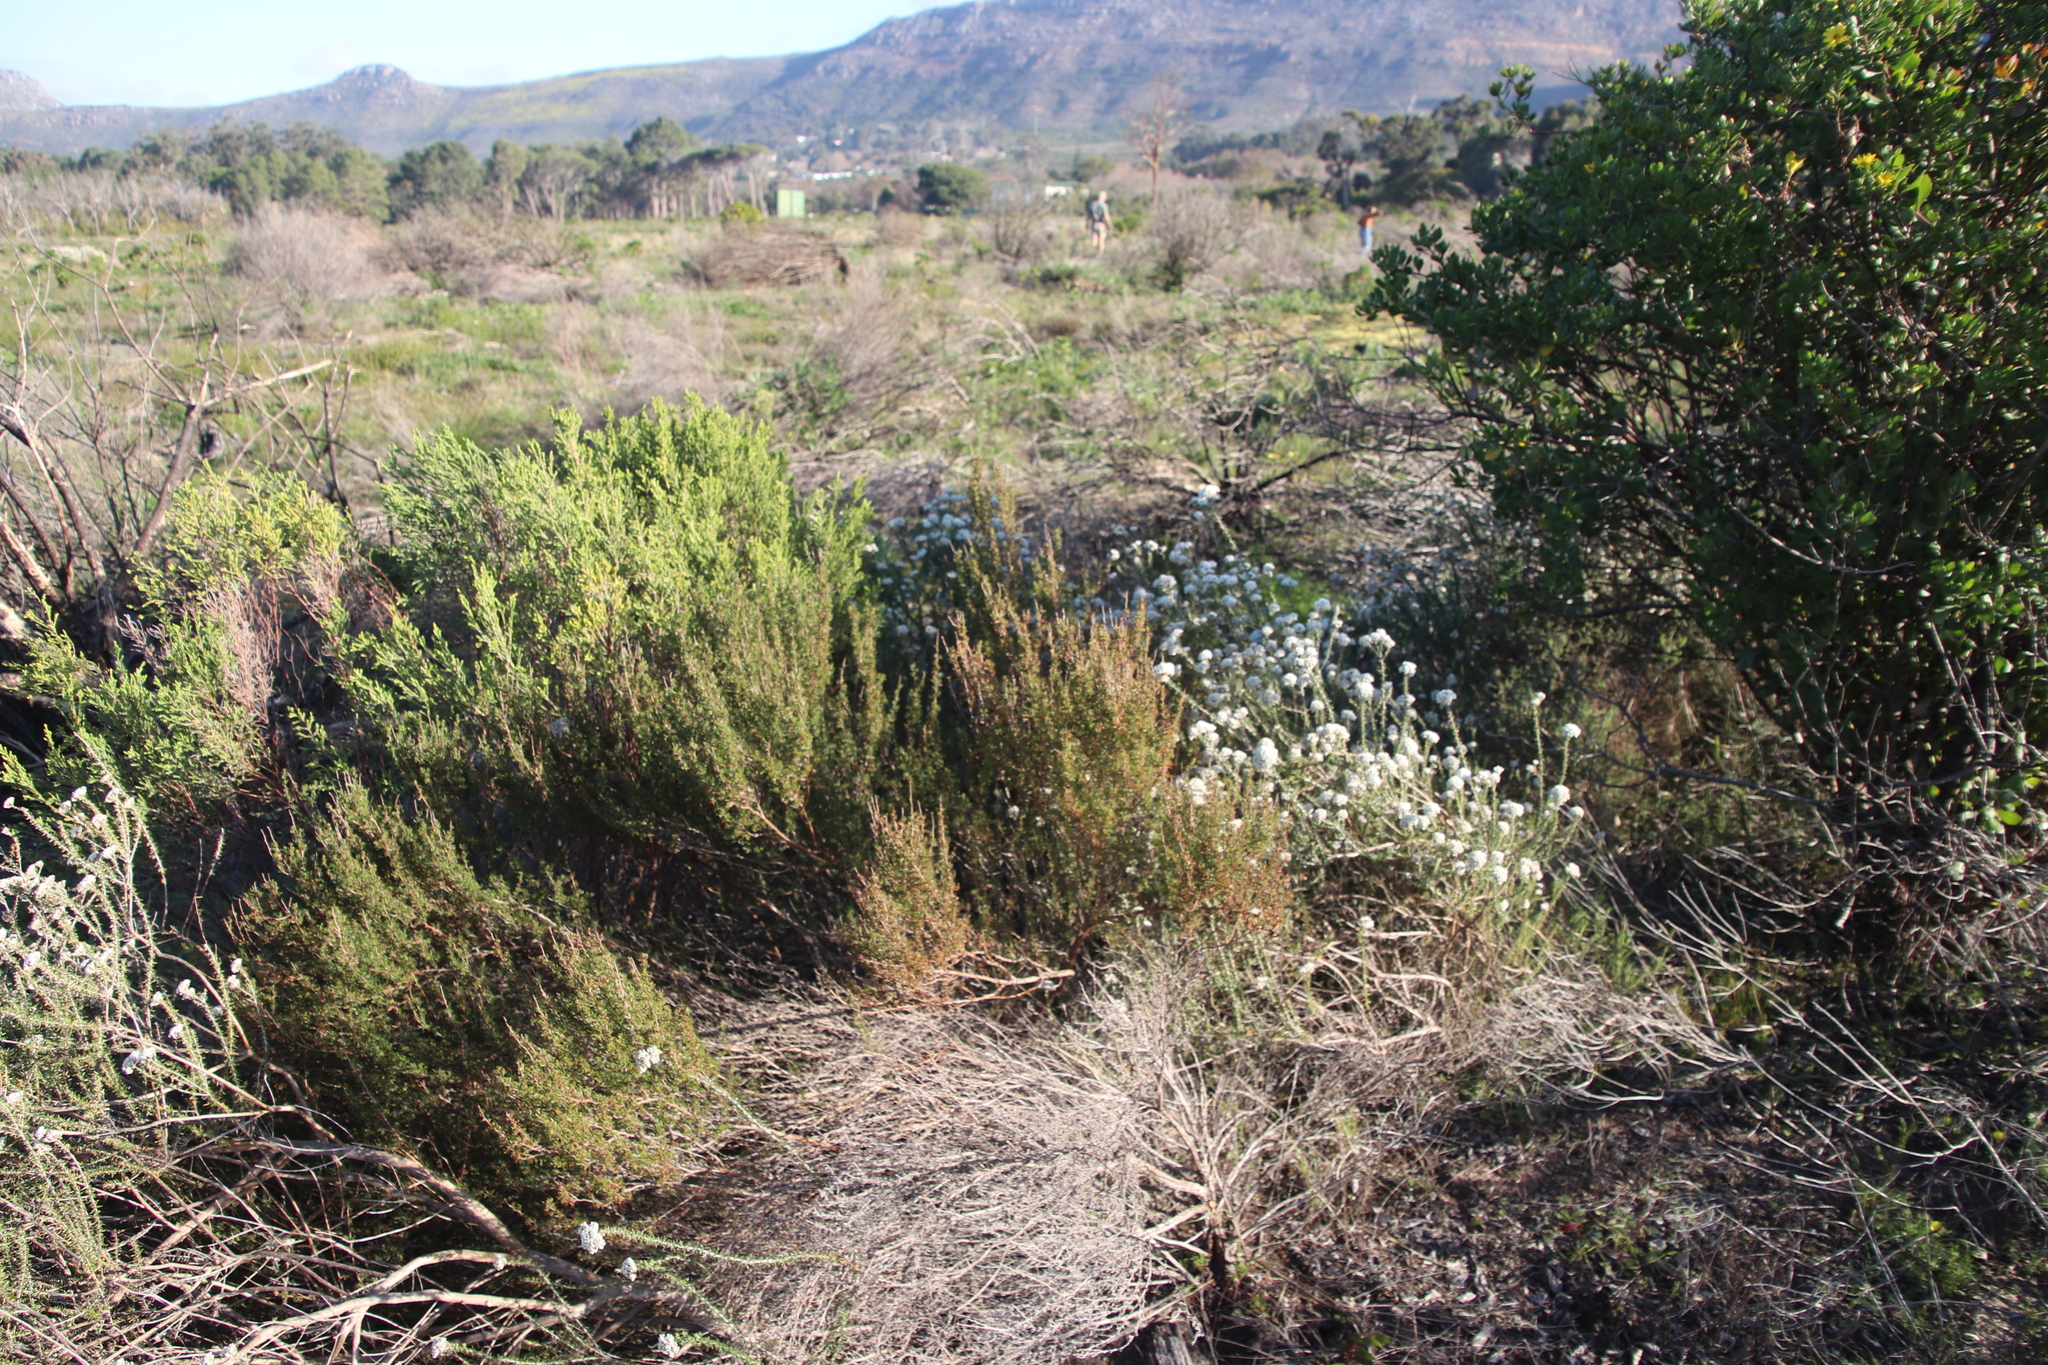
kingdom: Plantae
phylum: Tracheophyta
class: Magnoliopsida
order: Rosales
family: Rosaceae
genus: Cliffortia
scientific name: Cliffortia falcata
